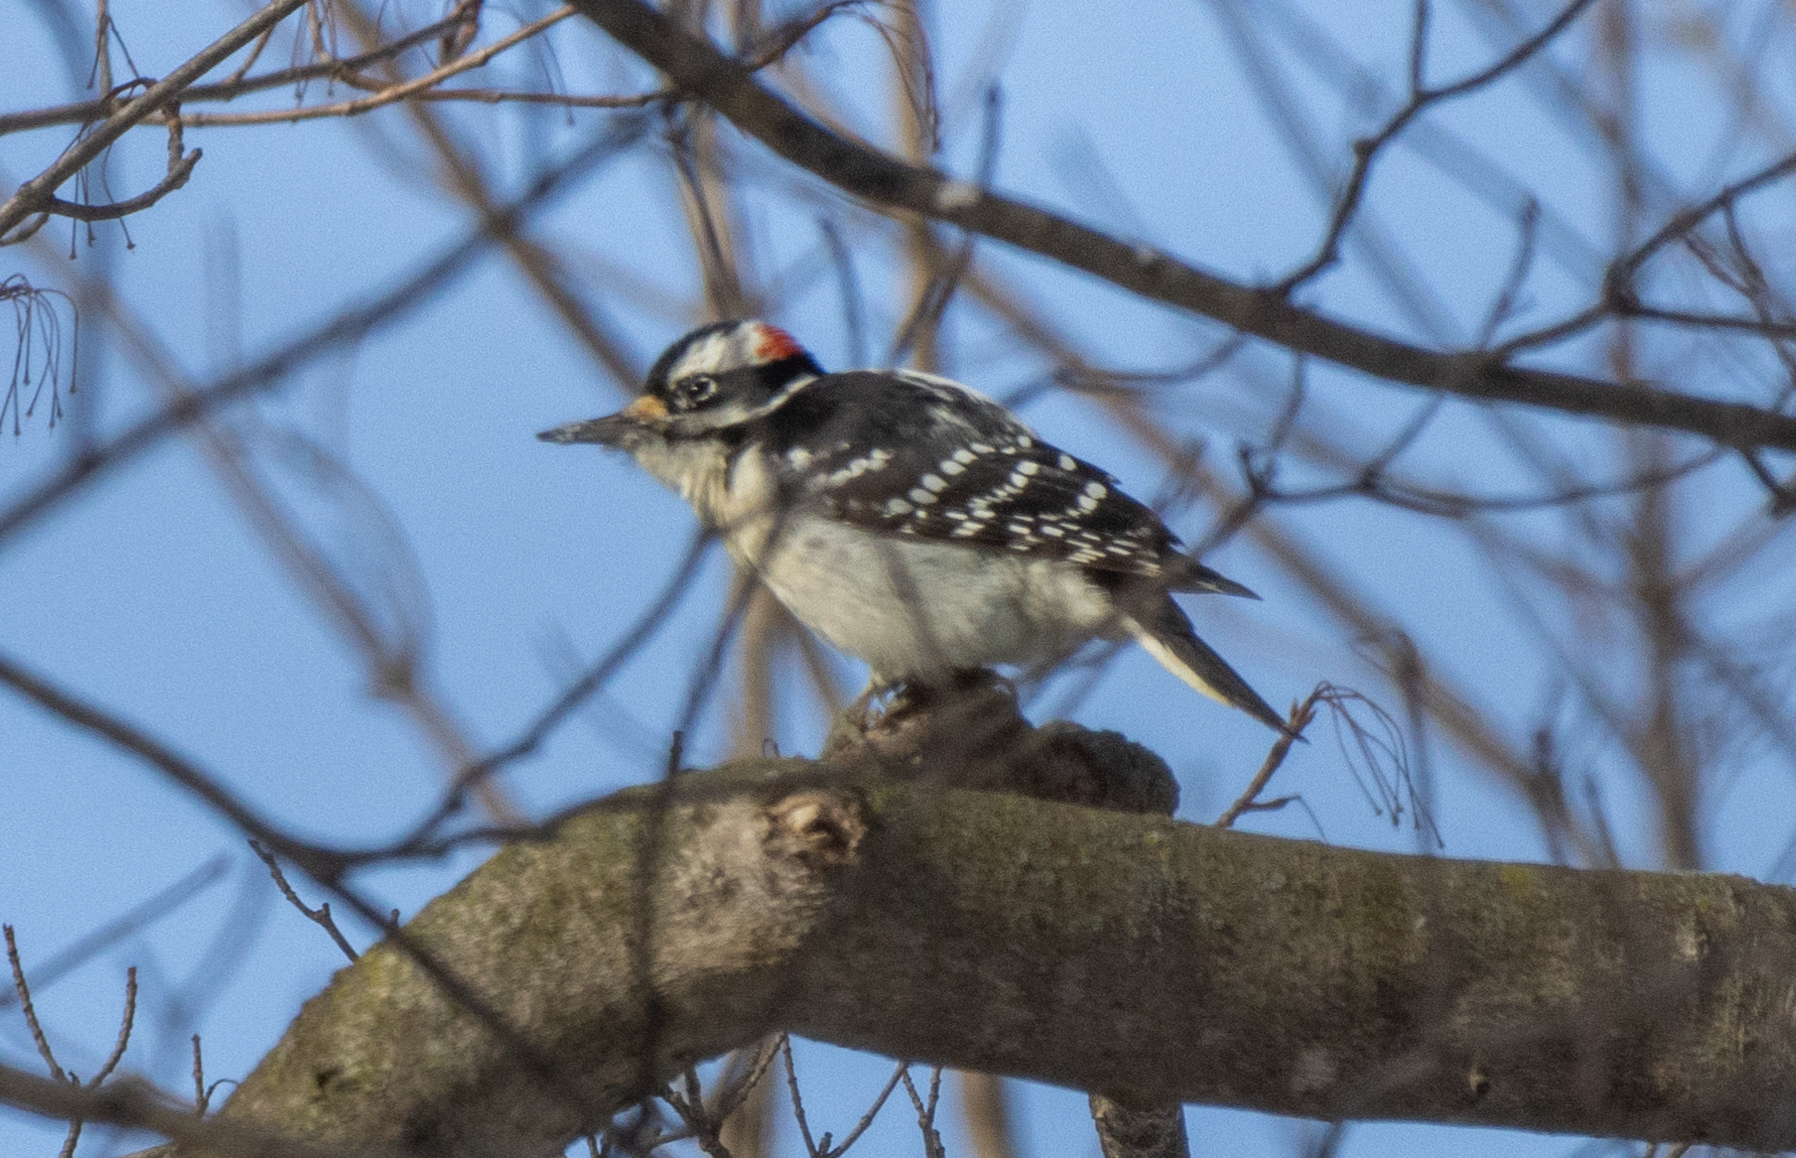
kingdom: Animalia
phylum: Chordata
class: Aves
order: Piciformes
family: Picidae
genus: Leuconotopicus
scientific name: Leuconotopicus villosus
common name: Hairy woodpecker
